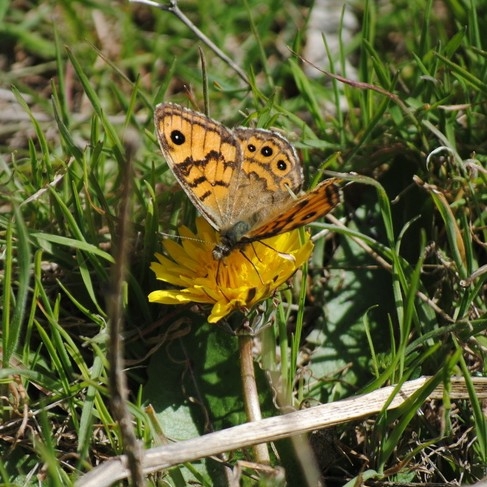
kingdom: Animalia
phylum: Arthropoda
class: Insecta
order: Lepidoptera
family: Nymphalidae
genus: Pararge
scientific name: Pararge Lasiommata megera
